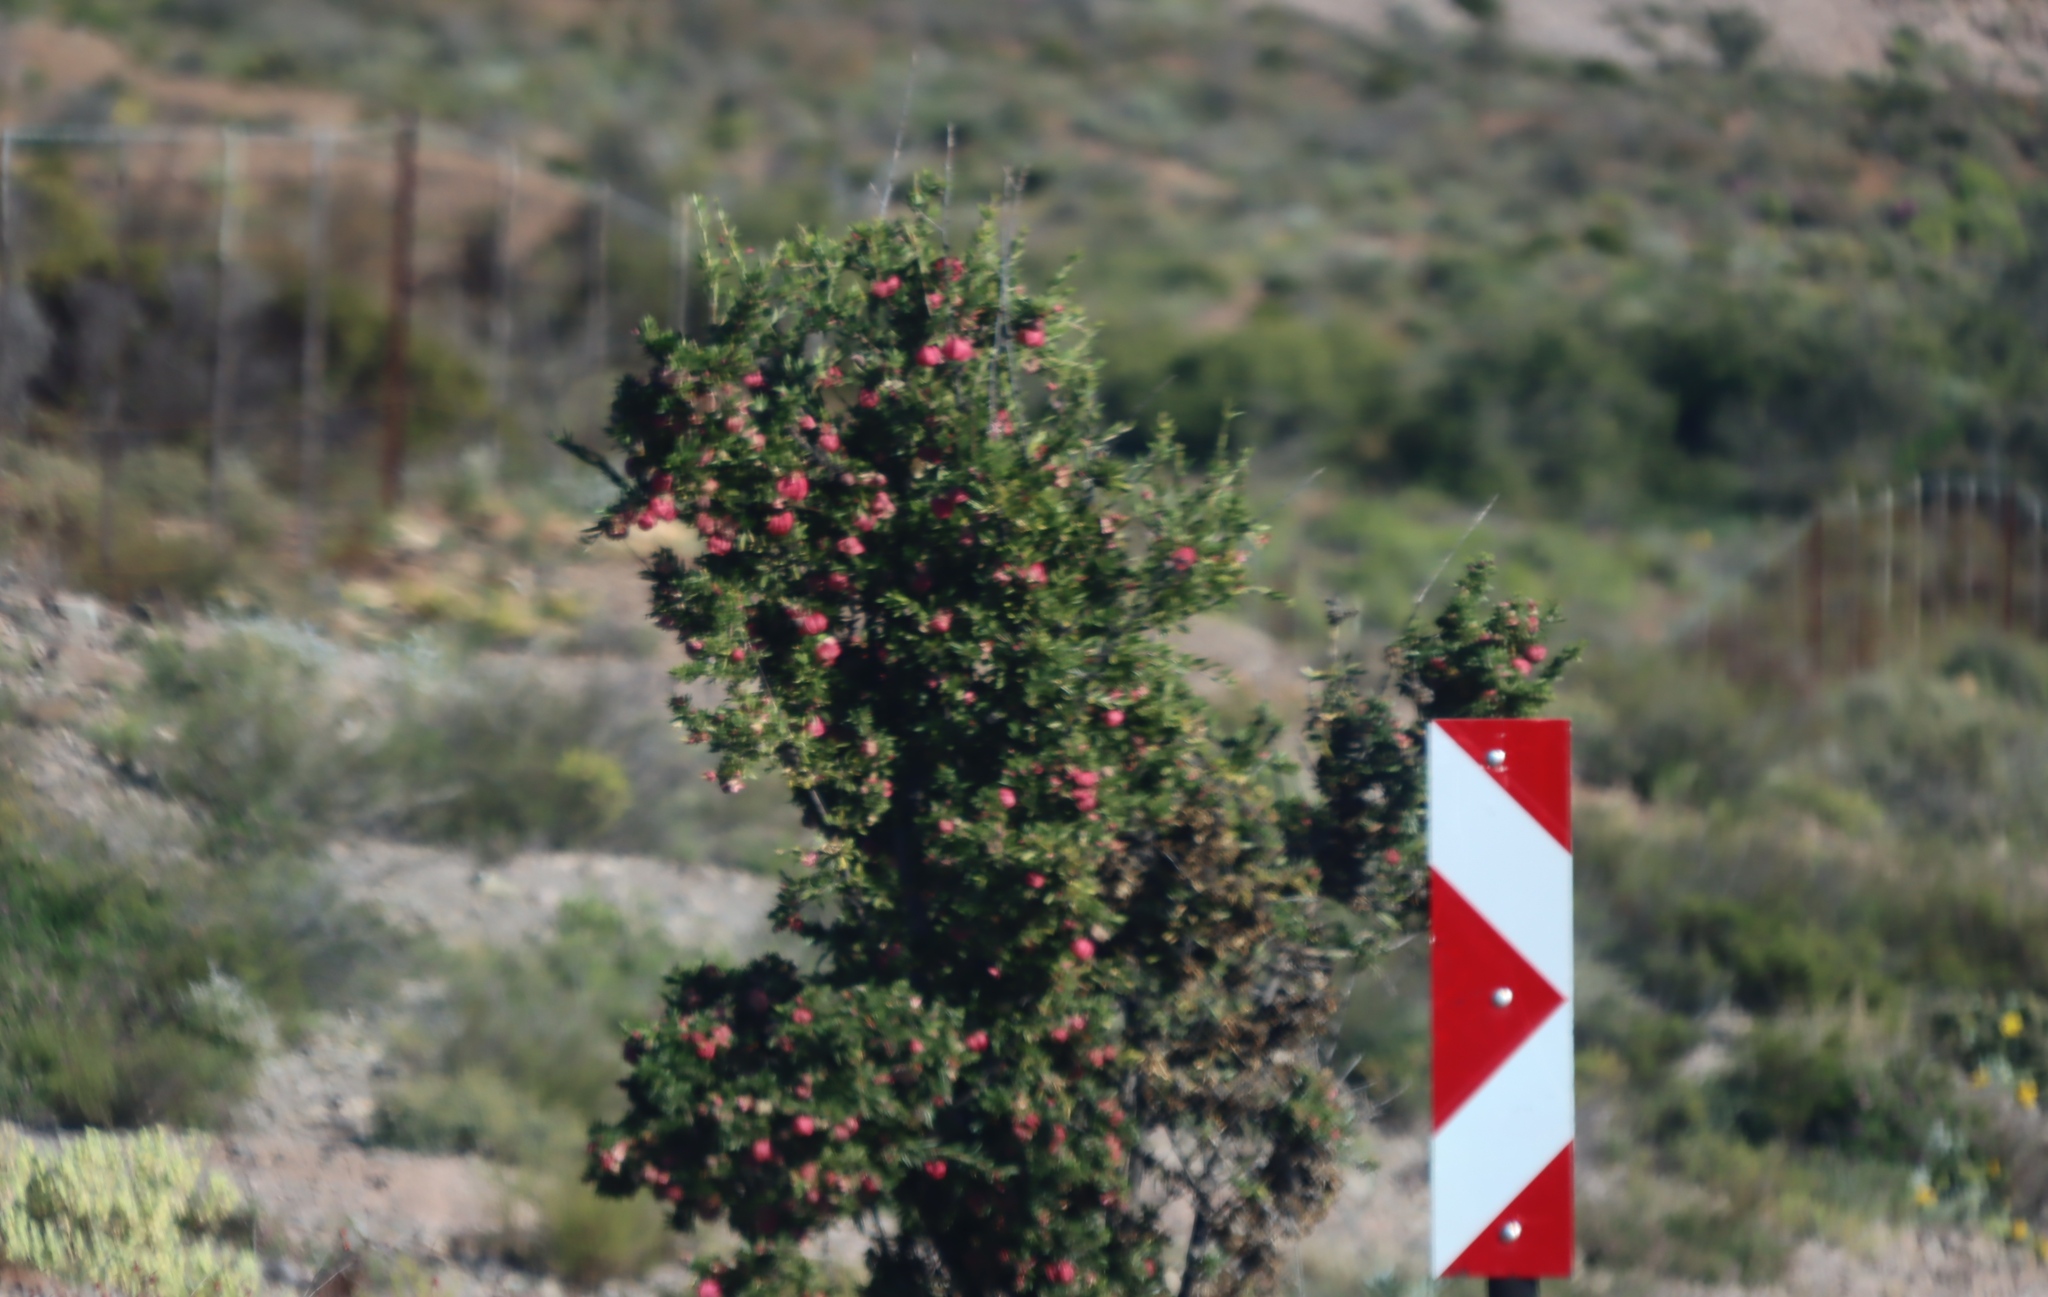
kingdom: Plantae
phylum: Tracheophyta
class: Magnoliopsida
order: Sapindales
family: Meliaceae
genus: Nymania
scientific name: Nymania capensis
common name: Chinese lantern tree
